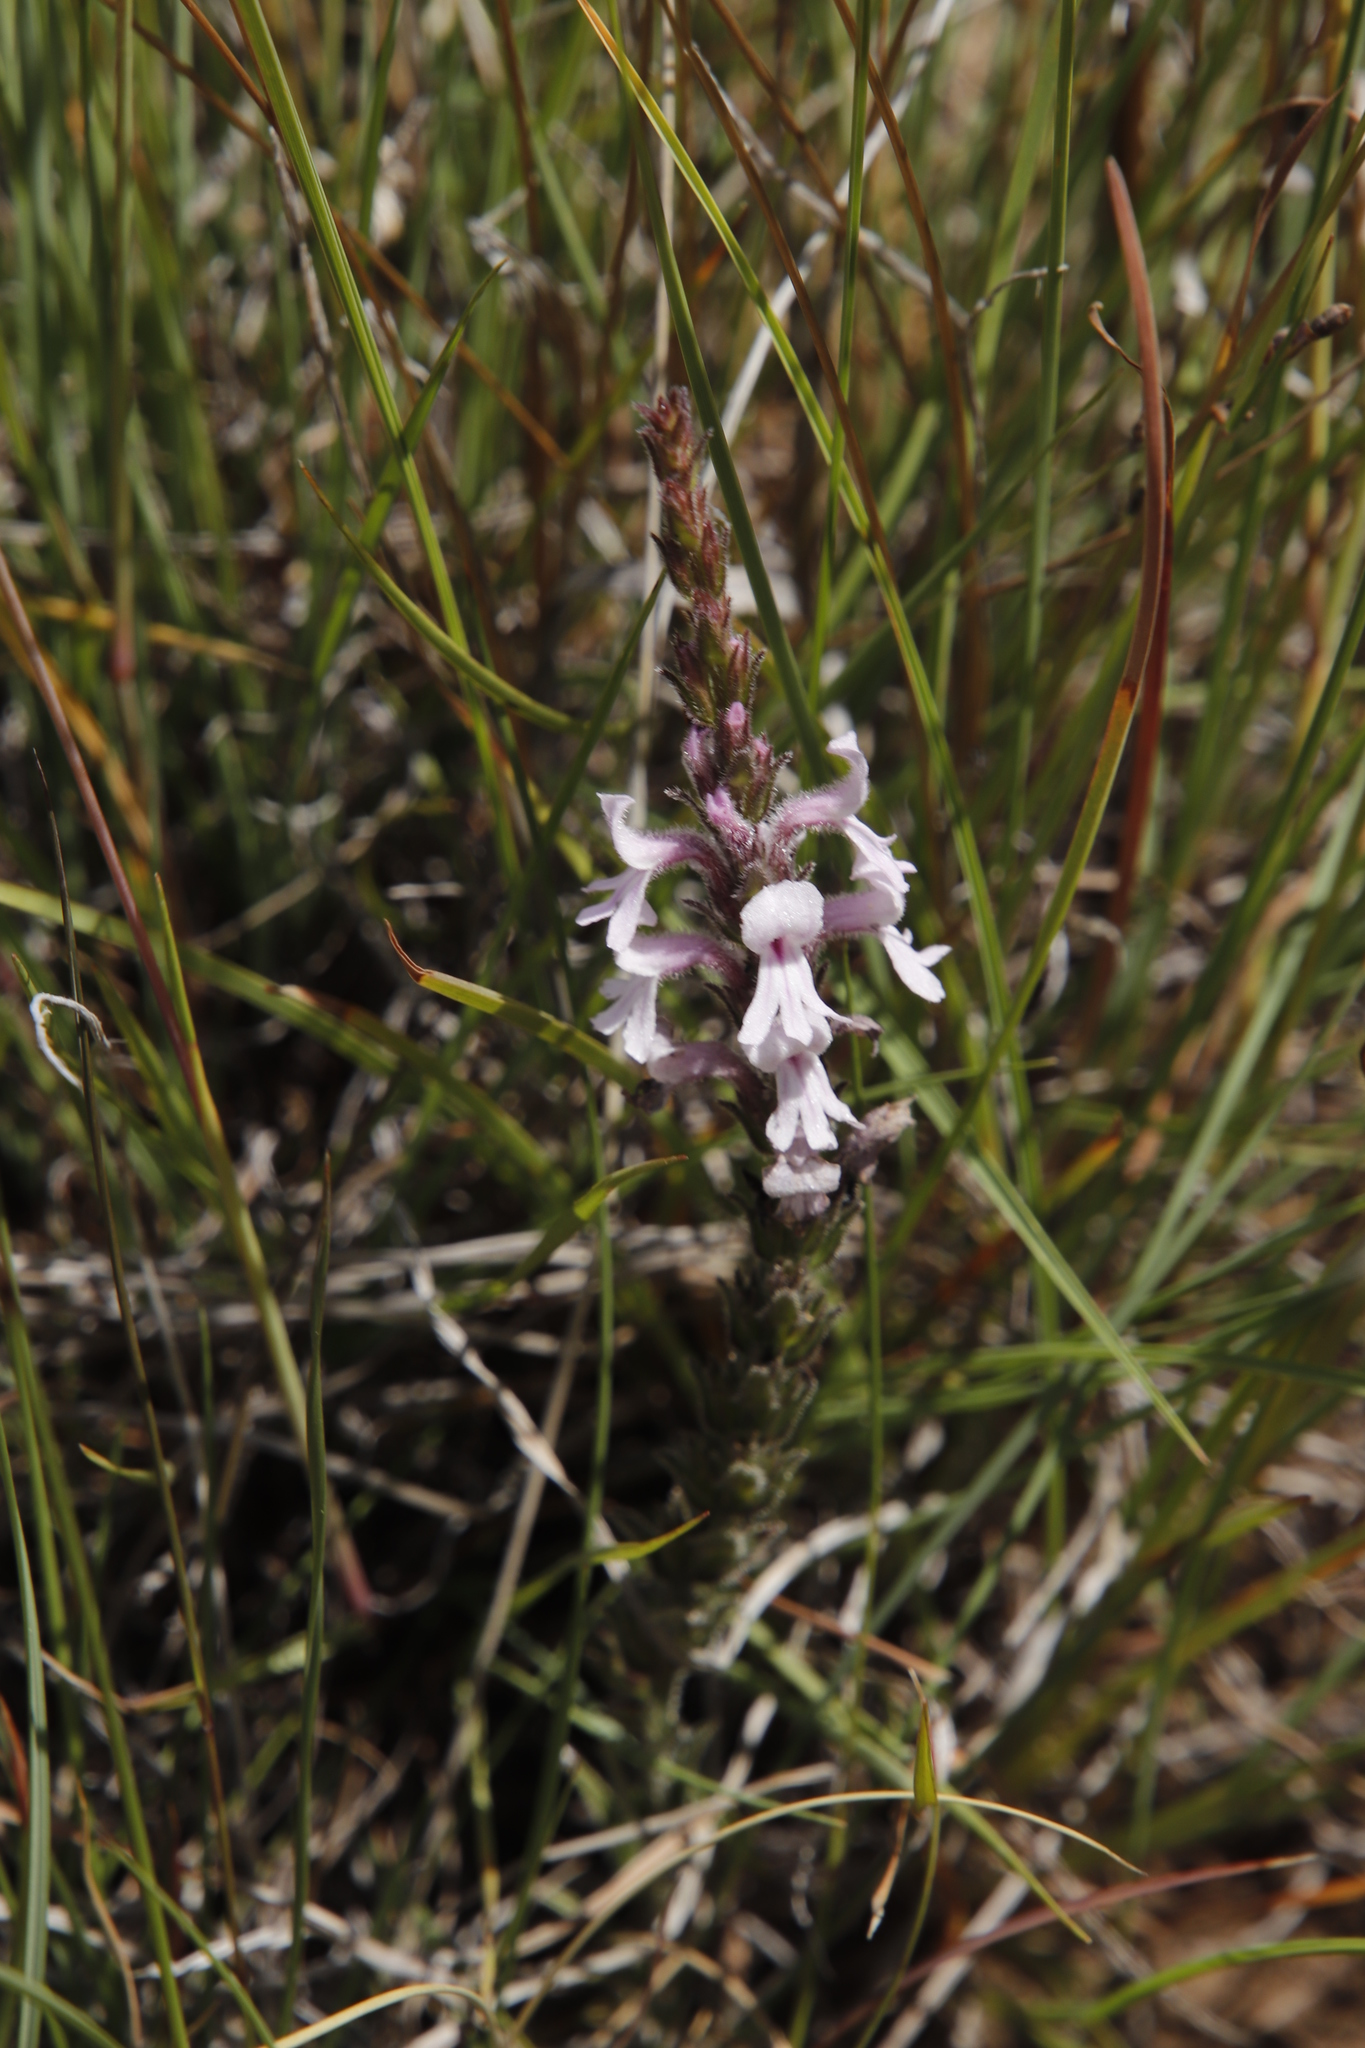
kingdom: Plantae
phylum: Tracheophyta
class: Magnoliopsida
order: Lamiales
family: Orobanchaceae
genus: Striga
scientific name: Striga bilabiata
